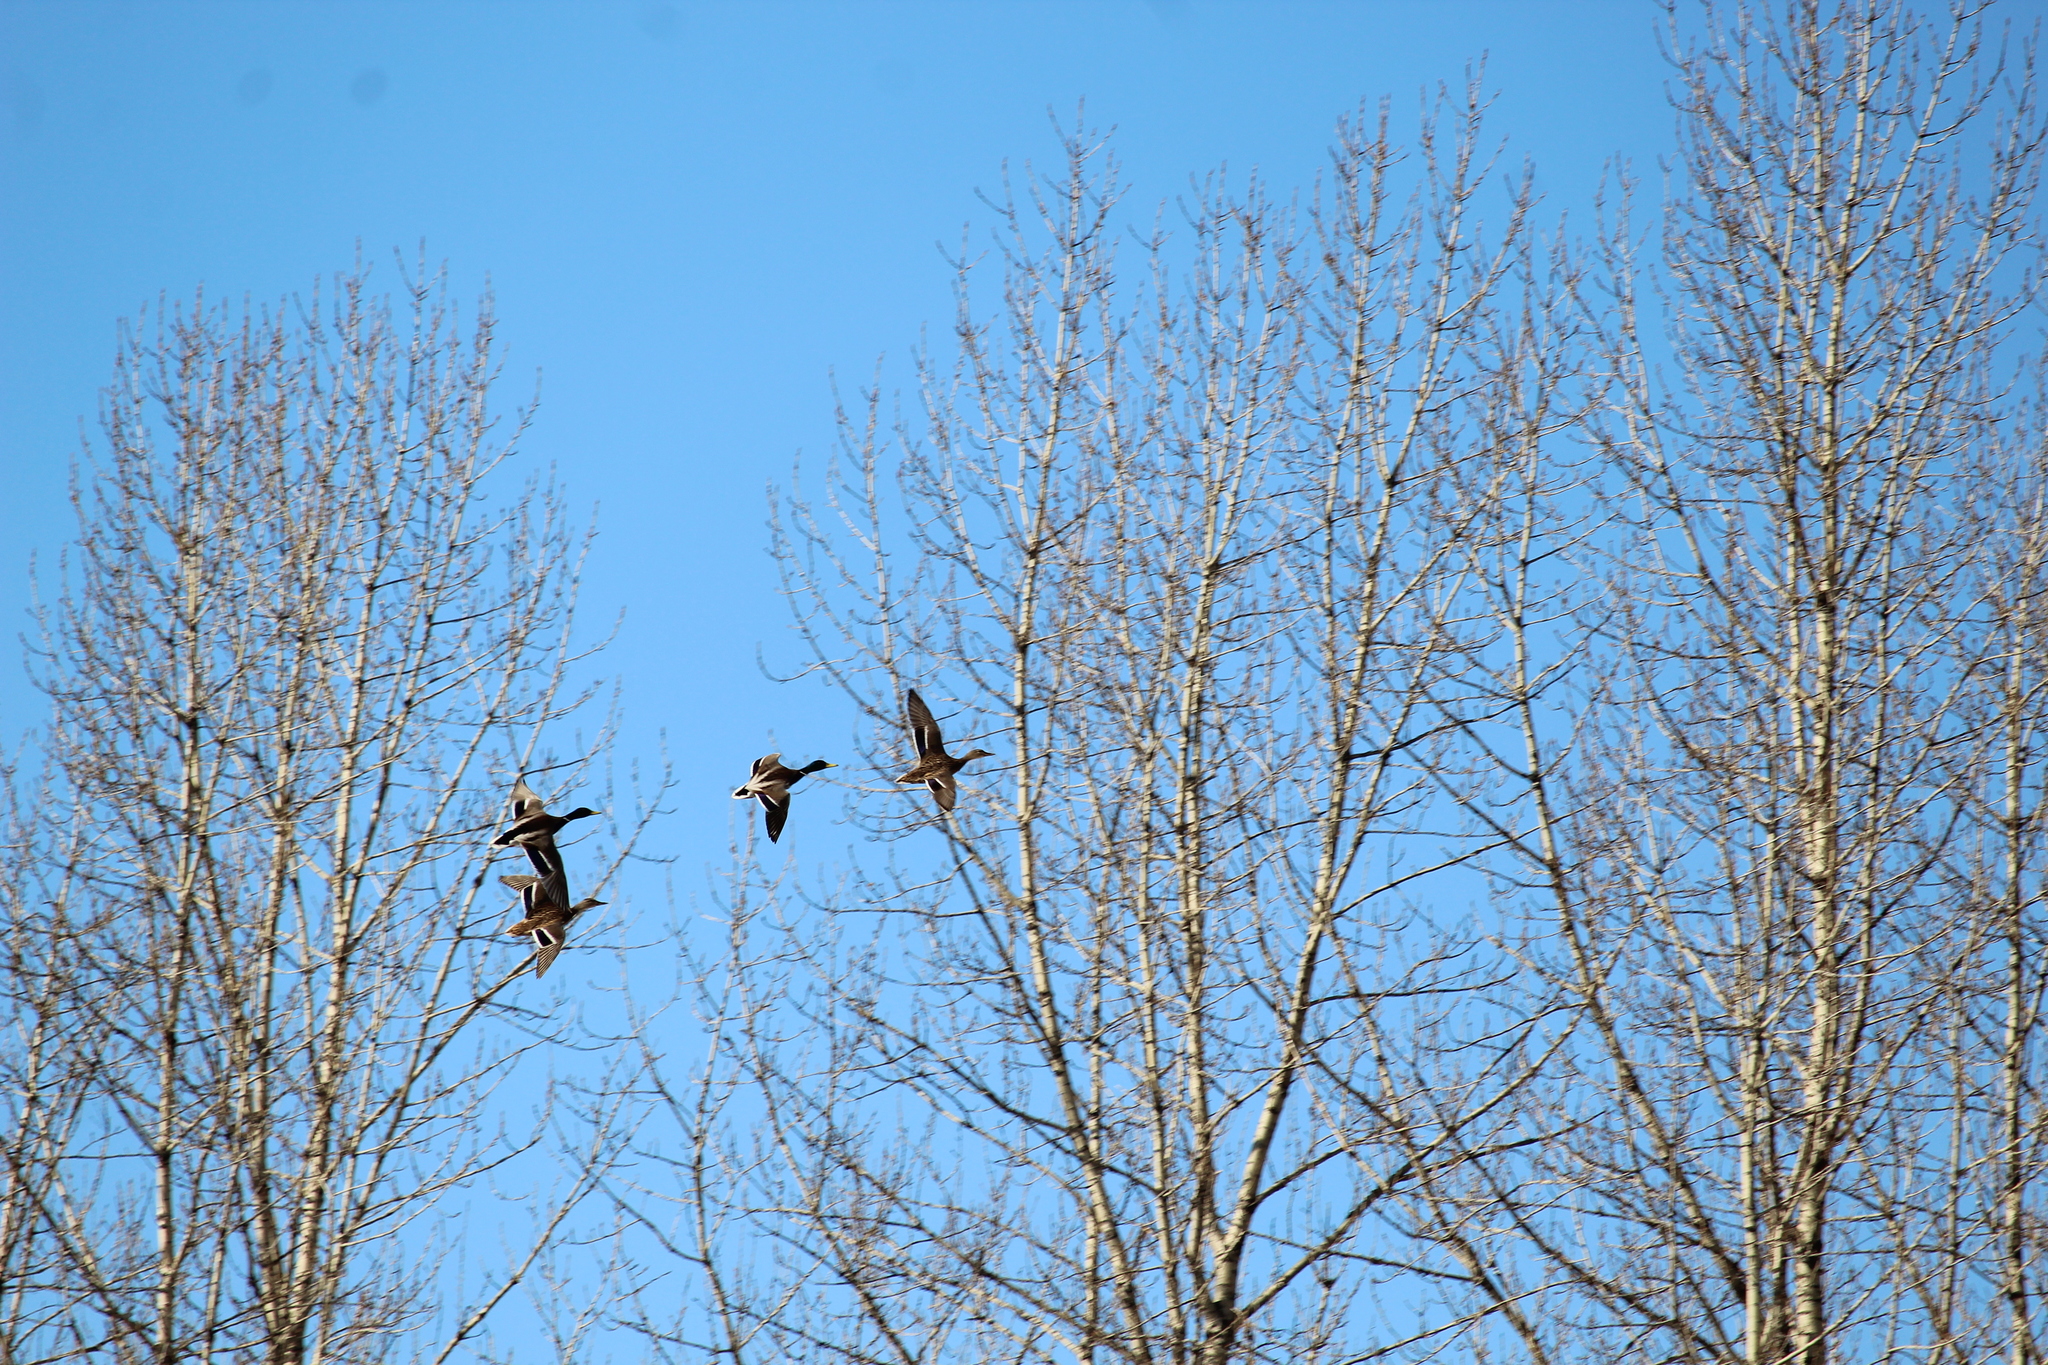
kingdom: Animalia
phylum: Chordata
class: Aves
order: Anseriformes
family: Anatidae
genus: Anas
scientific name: Anas platyrhynchos
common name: Mallard
